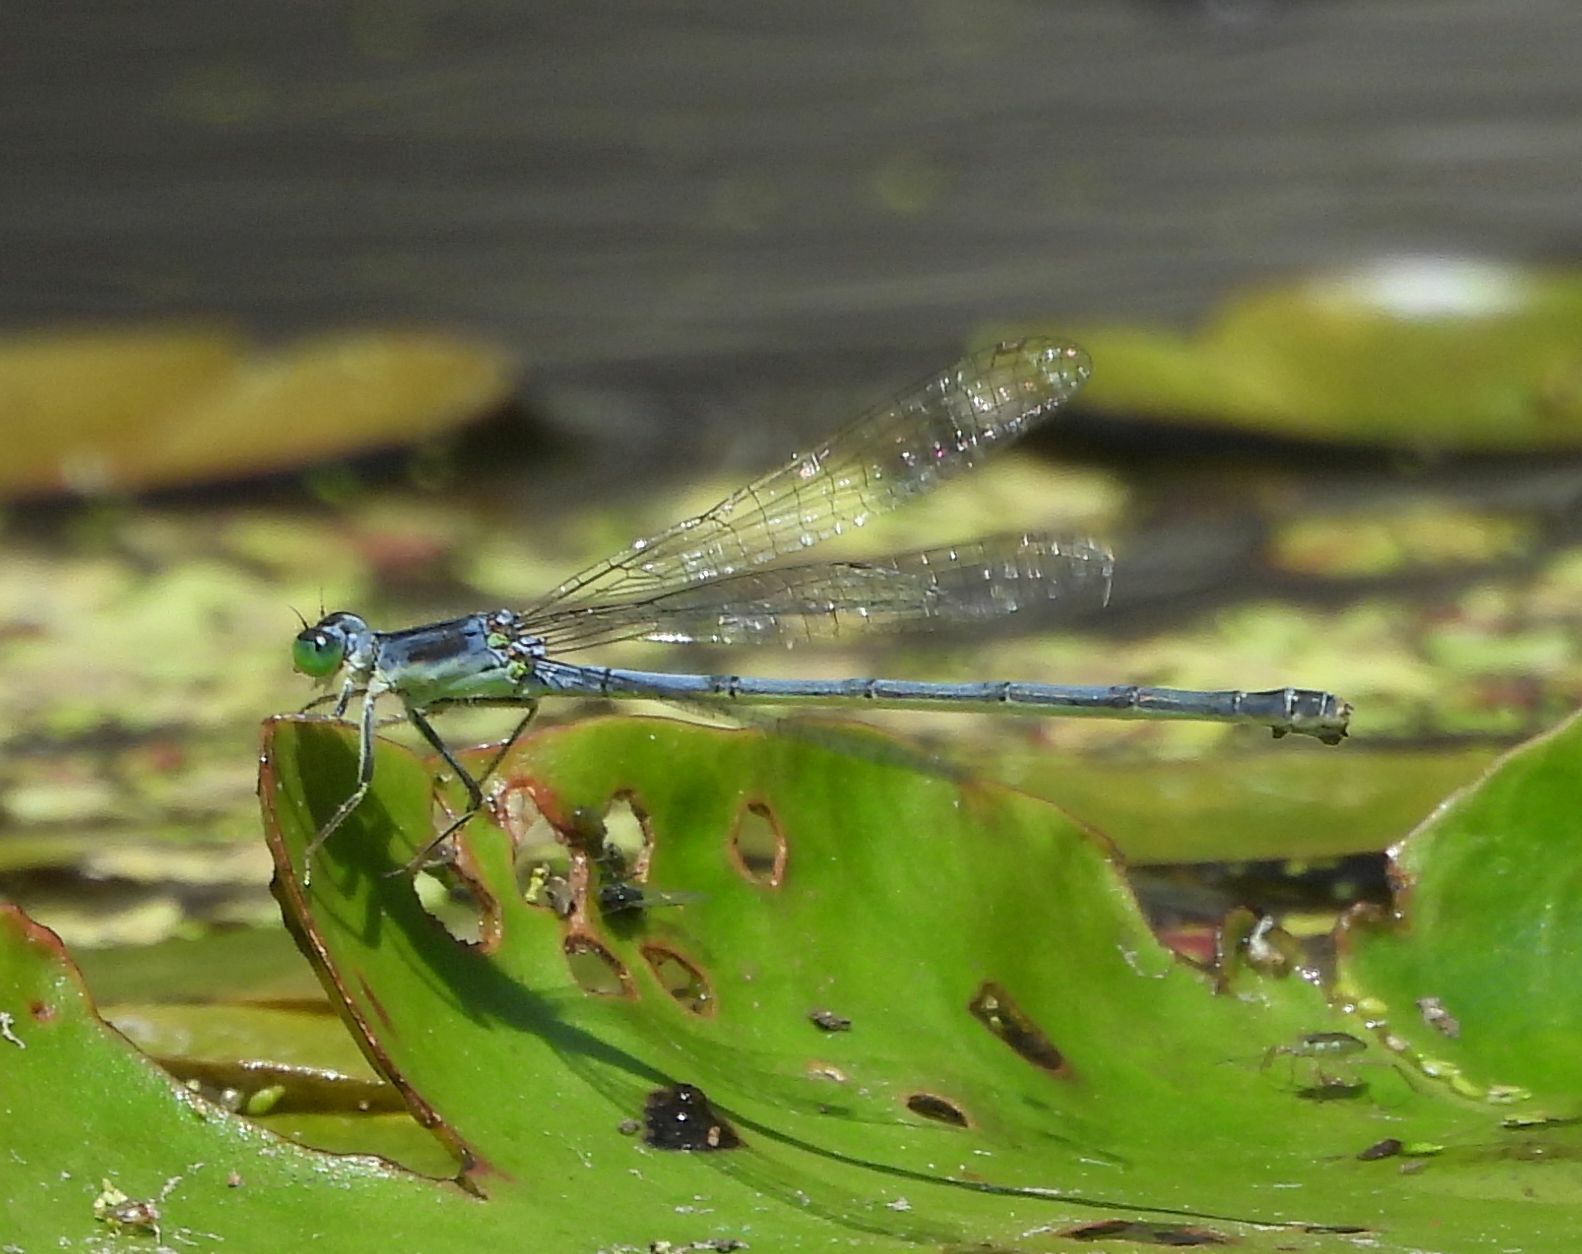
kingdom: Animalia
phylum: Arthropoda
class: Insecta
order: Odonata
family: Coenagrionidae
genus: Ischnura
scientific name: Ischnura verticalis
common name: Eastern forktail
